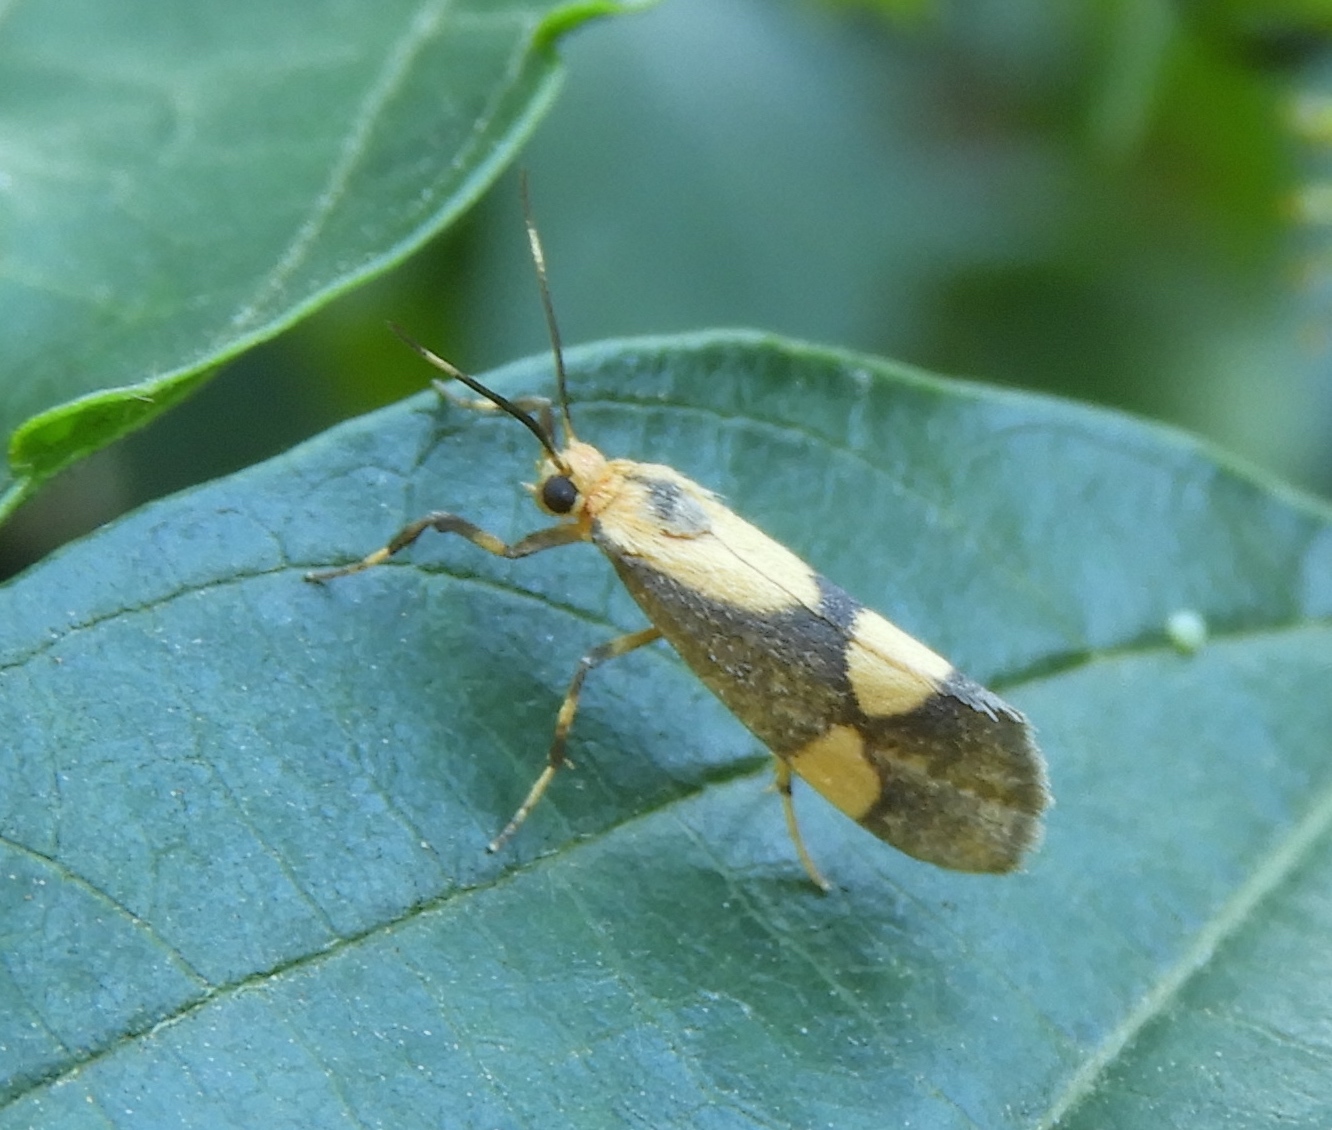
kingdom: Animalia
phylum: Arthropoda
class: Insecta
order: Lepidoptera
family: Erebidae
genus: Cisthene
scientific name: Cisthene
